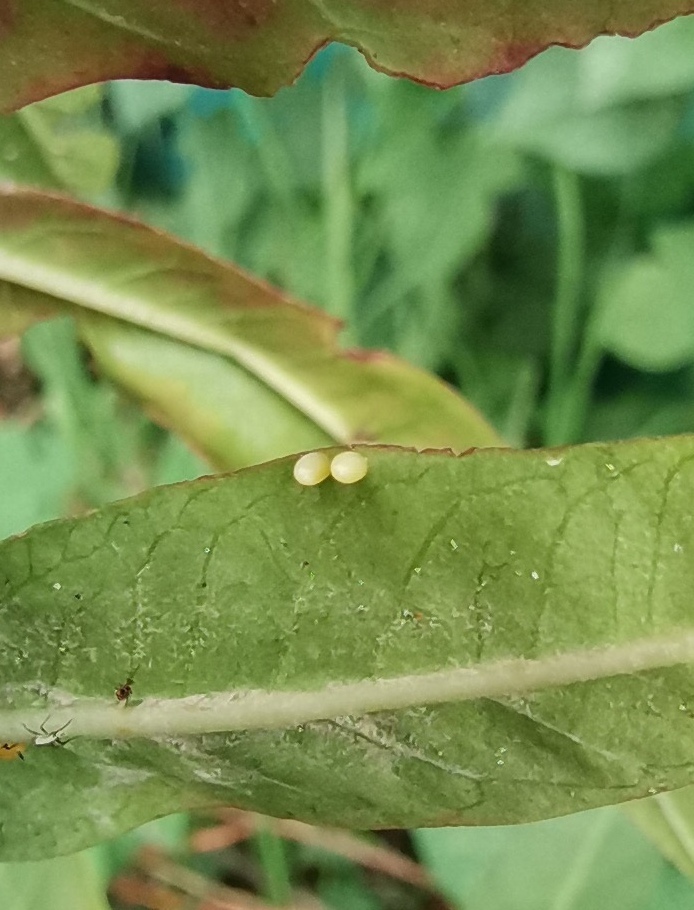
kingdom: Animalia
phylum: Arthropoda
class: Insecta
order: Lepidoptera
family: Nymphalidae
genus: Danaus
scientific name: Danaus plexippus
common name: Monarch
